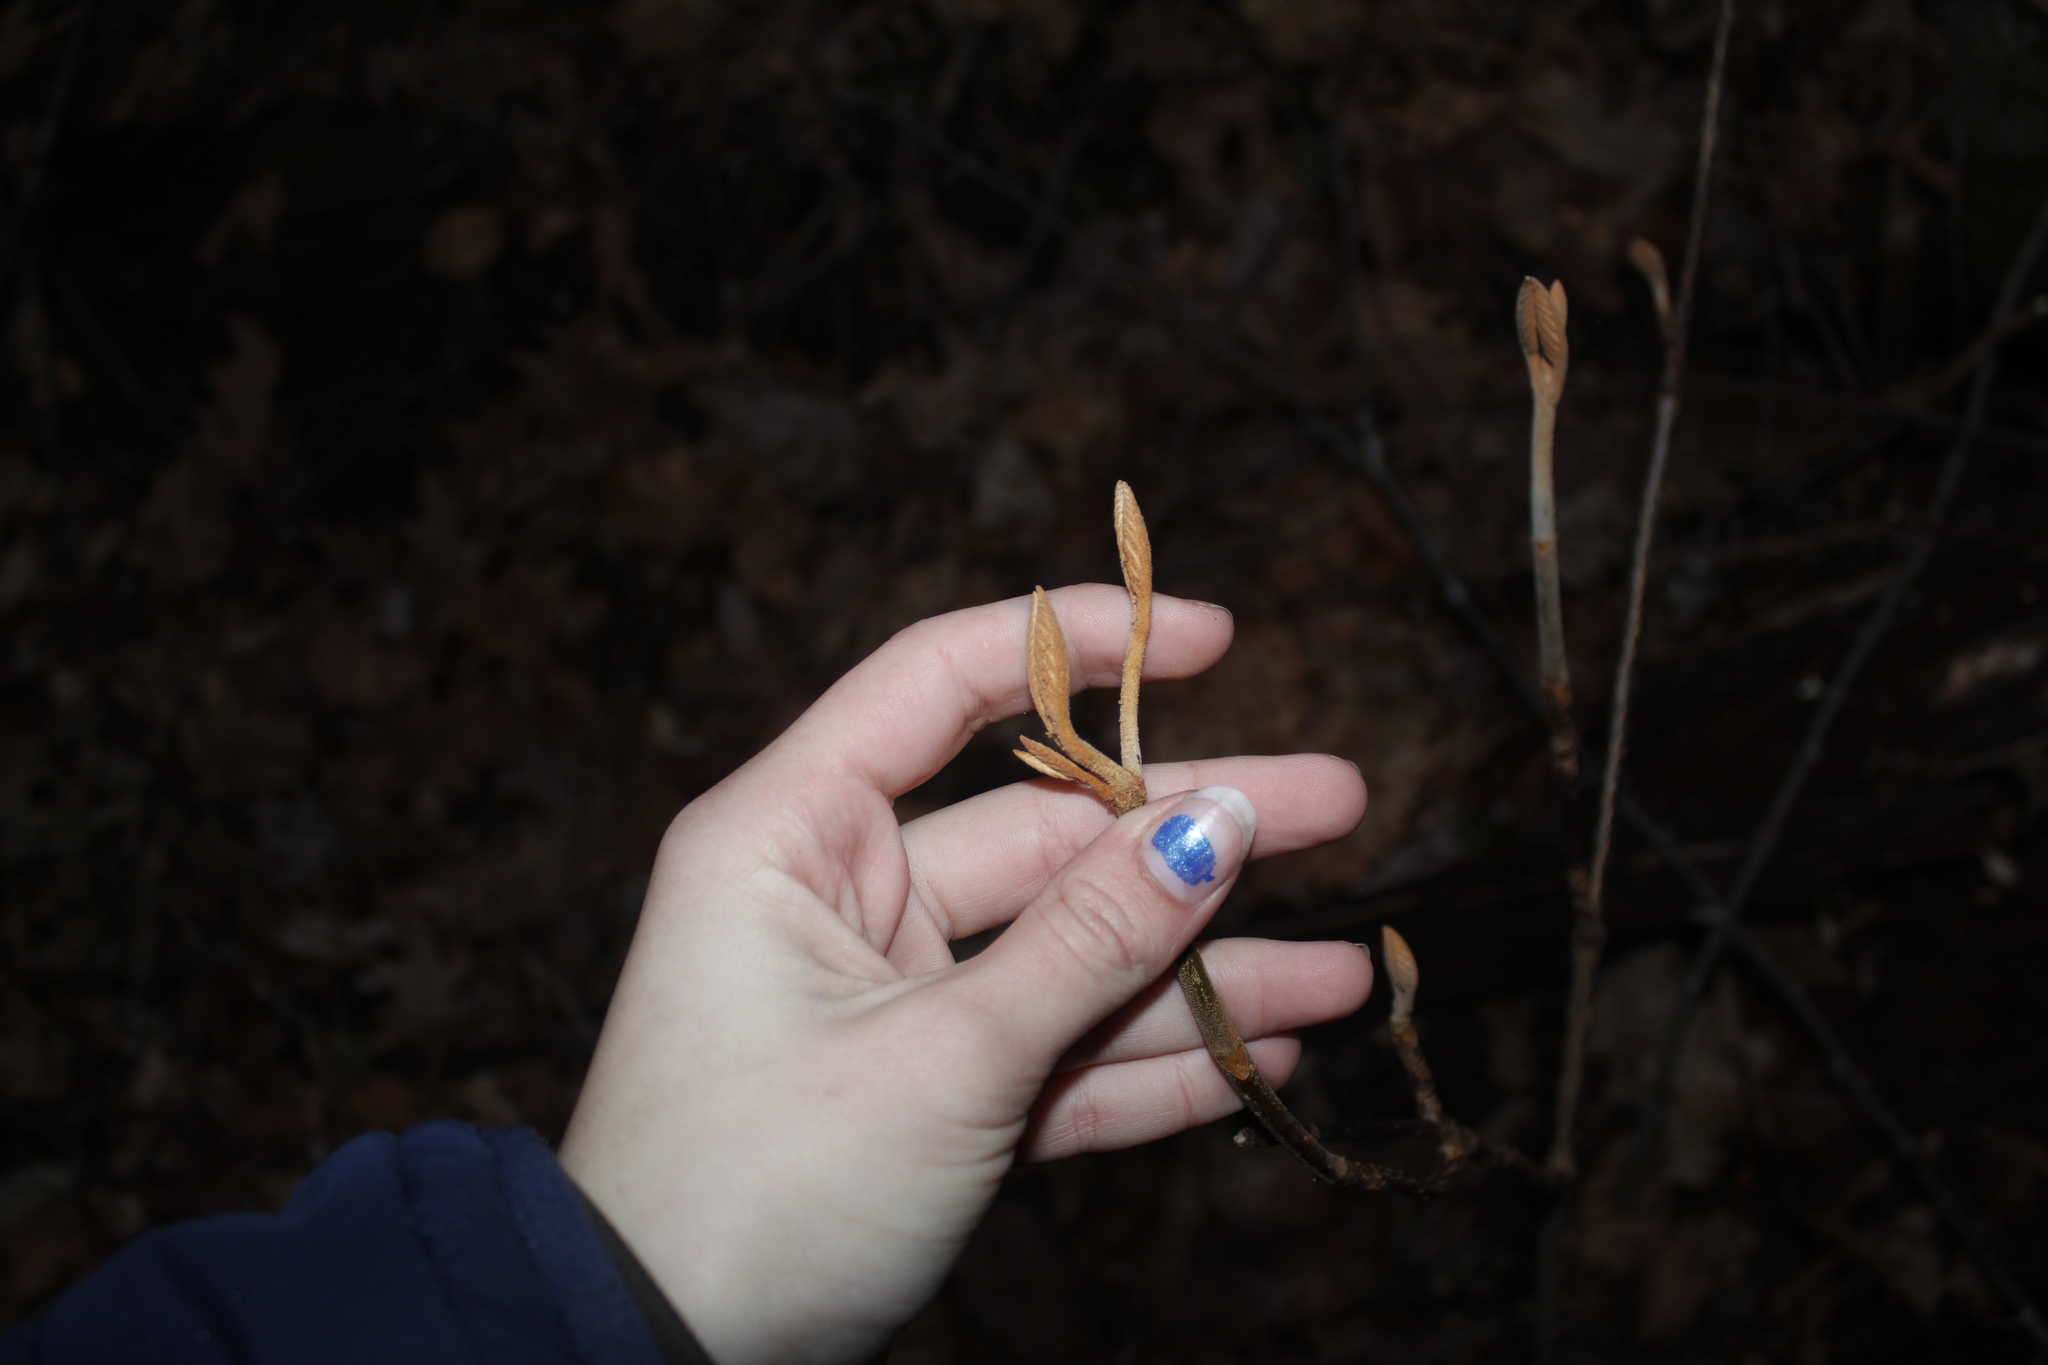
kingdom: Plantae
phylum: Tracheophyta
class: Magnoliopsida
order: Dipsacales
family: Viburnaceae
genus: Viburnum
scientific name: Viburnum lantanoides
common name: Hobblebush
